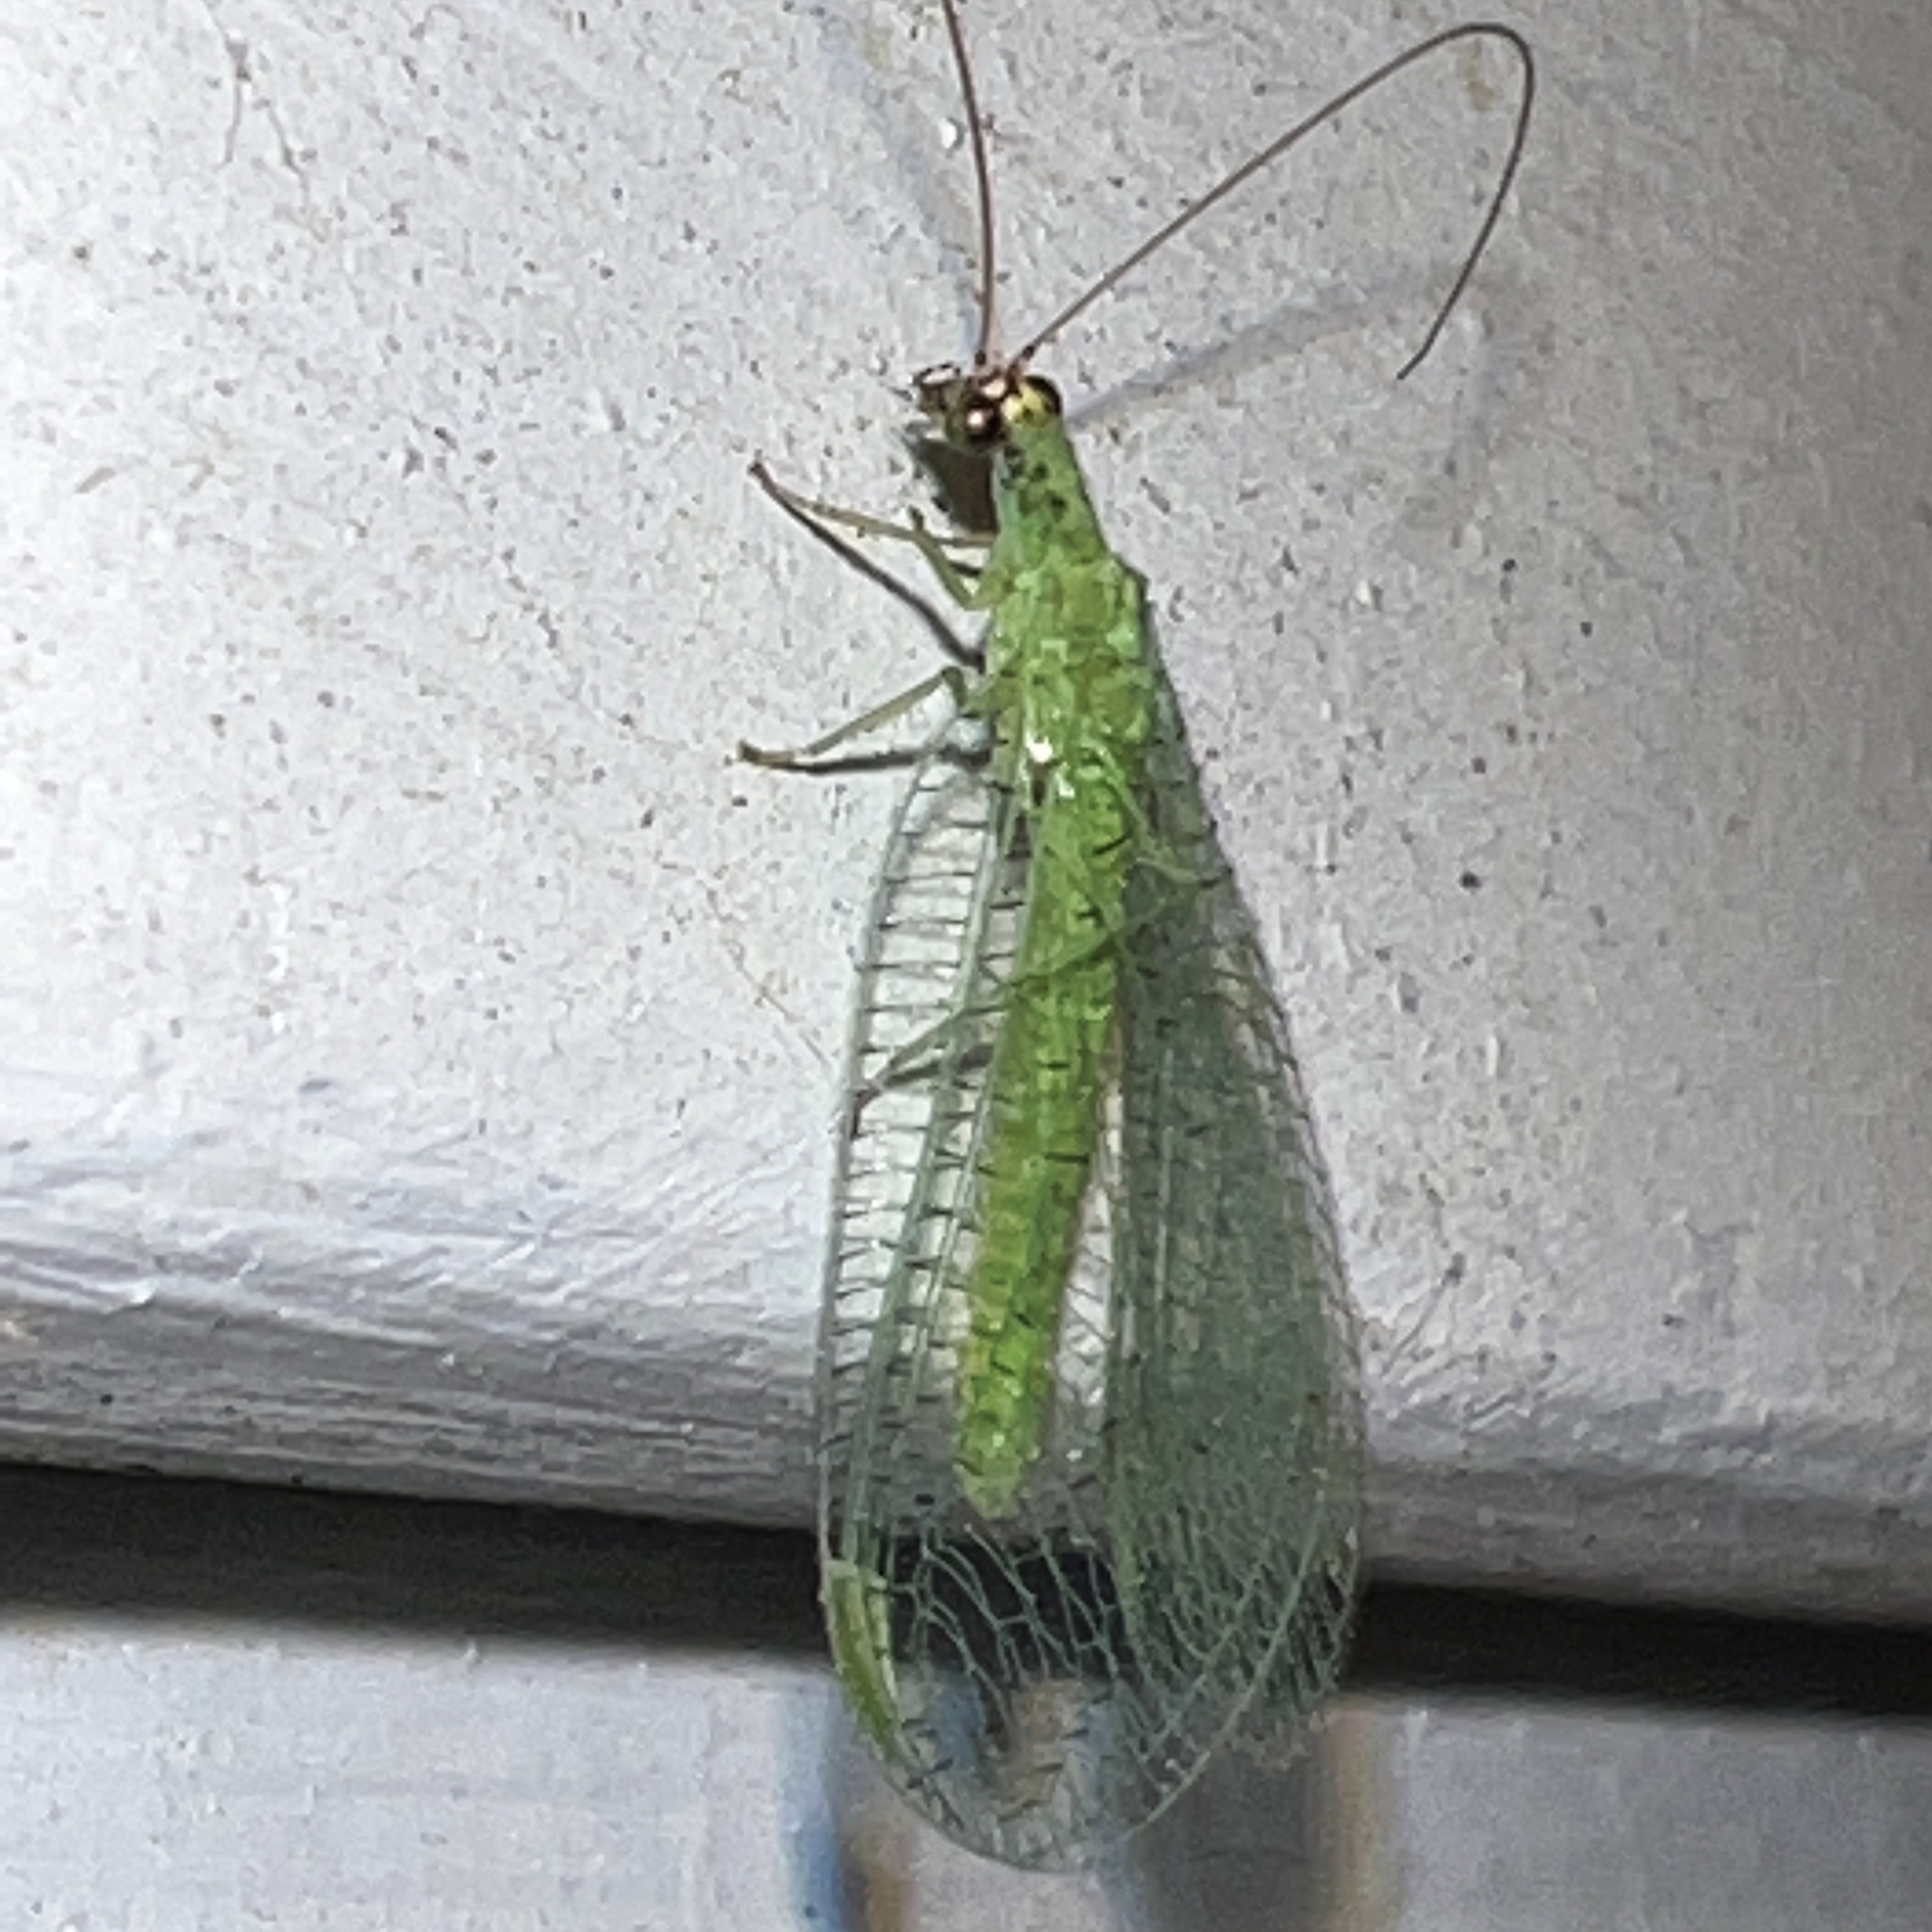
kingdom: Animalia
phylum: Arthropoda
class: Insecta
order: Neuroptera
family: Chrysopidae
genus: Chrysopa
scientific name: Chrysopa oculata
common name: Golden-eyed lacewing
